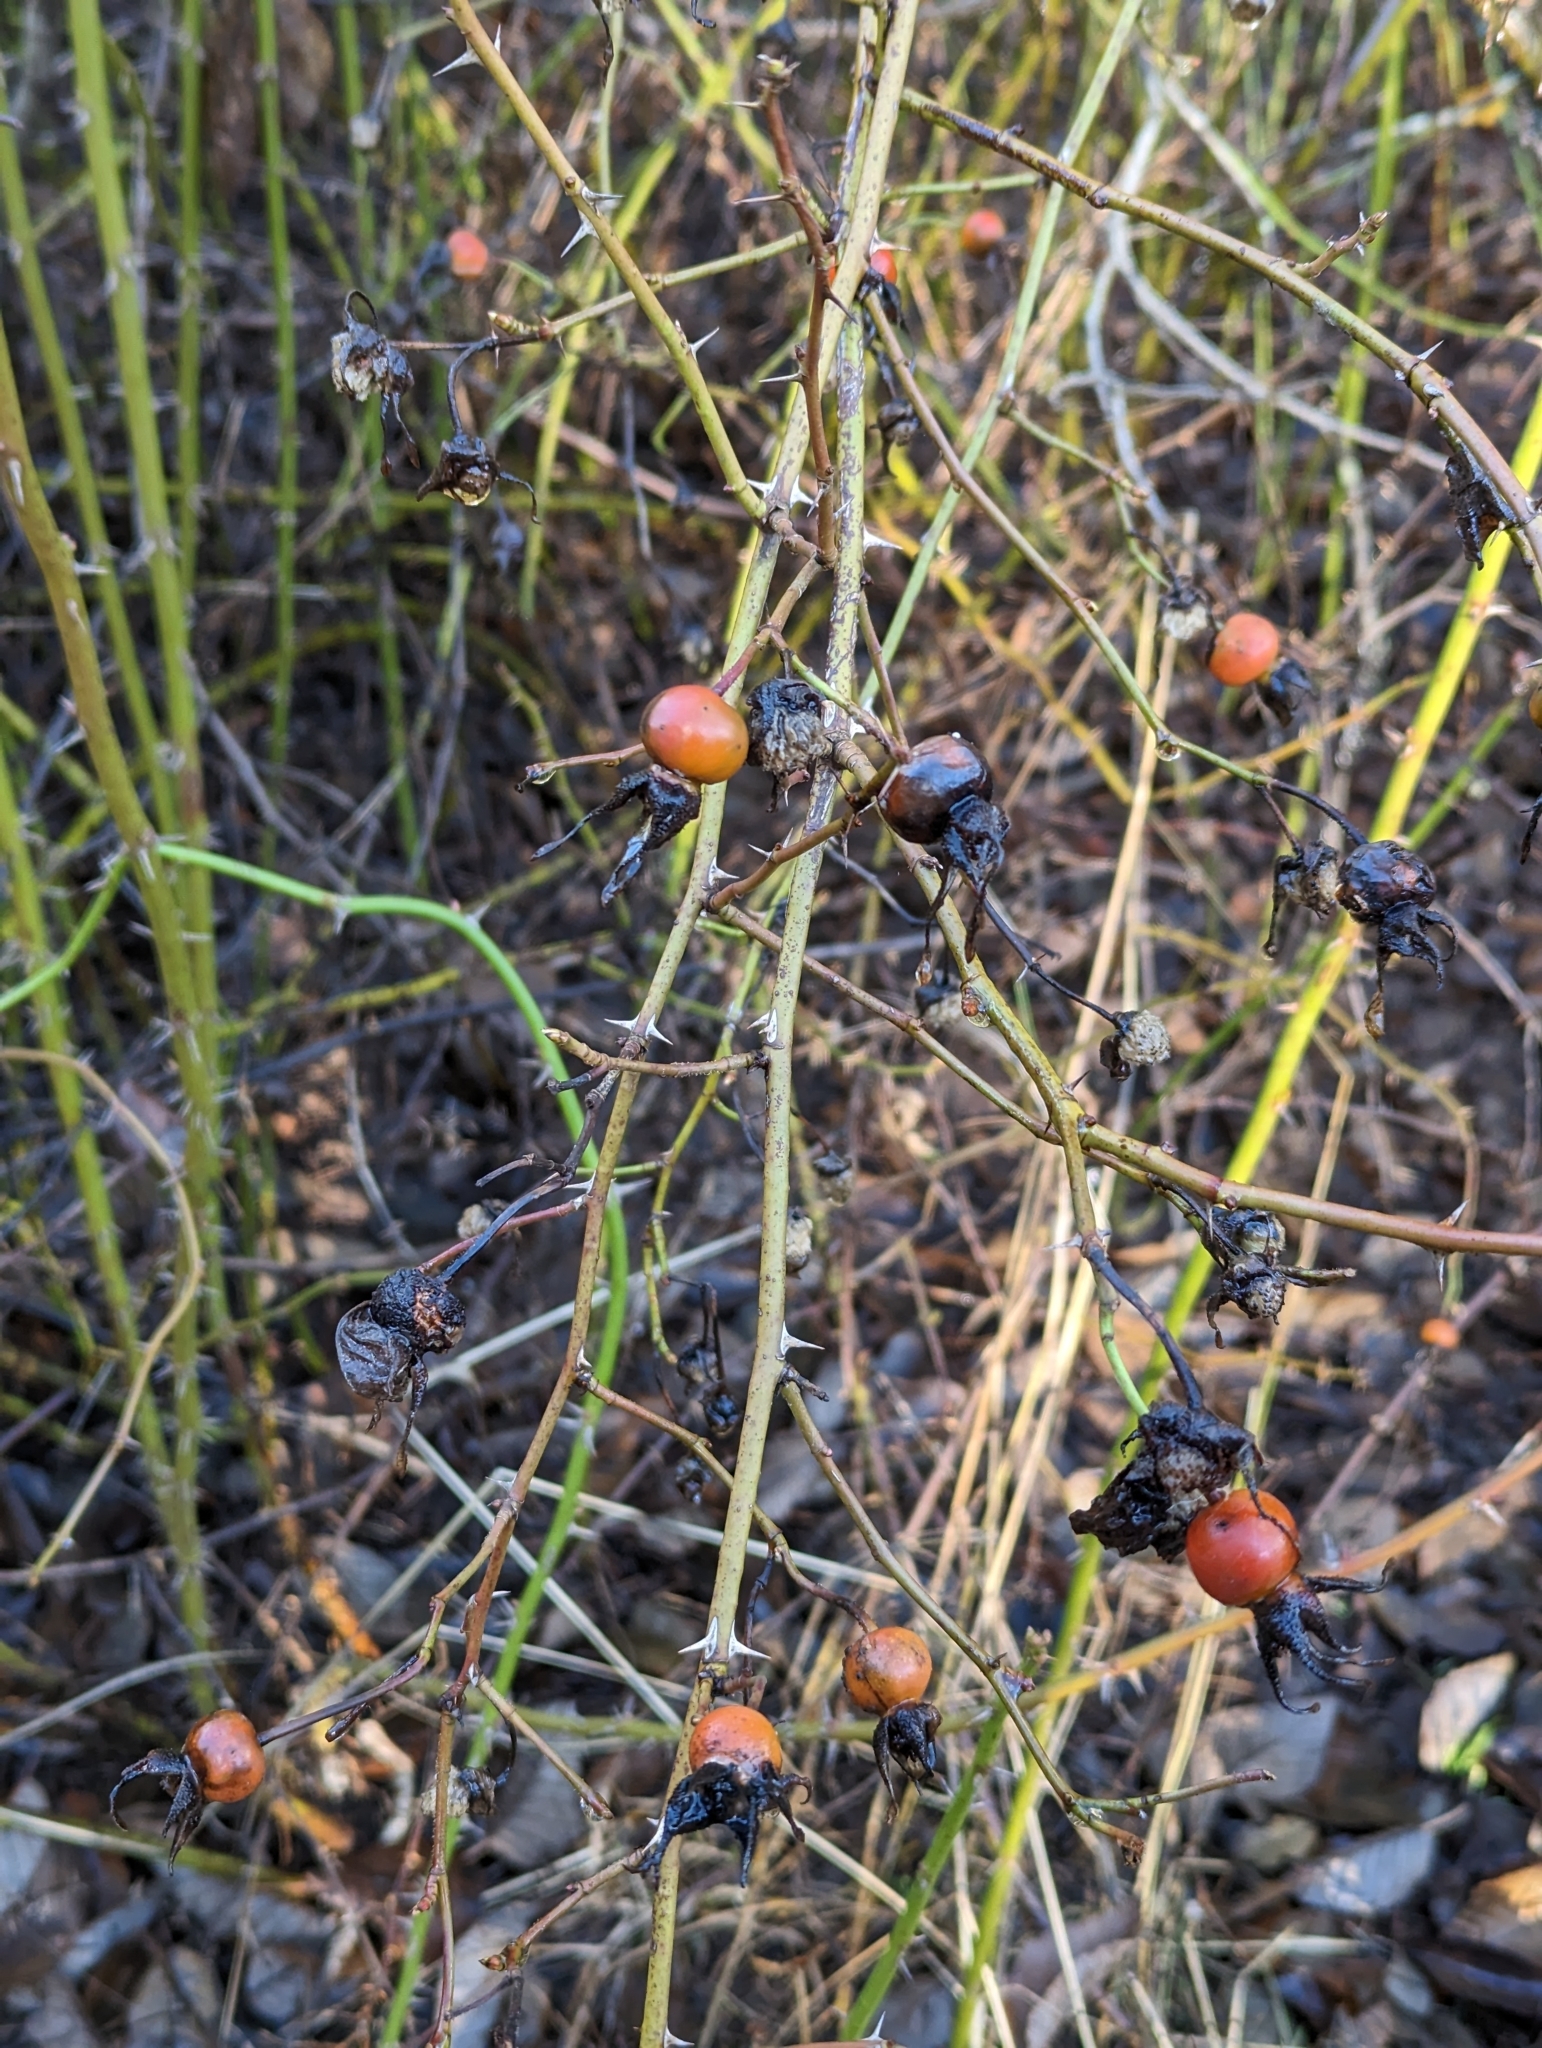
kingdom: Plantae
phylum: Tracheophyta
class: Magnoliopsida
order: Rosales
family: Rosaceae
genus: Rosa
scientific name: Rosa nutkana
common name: Nootka rose
